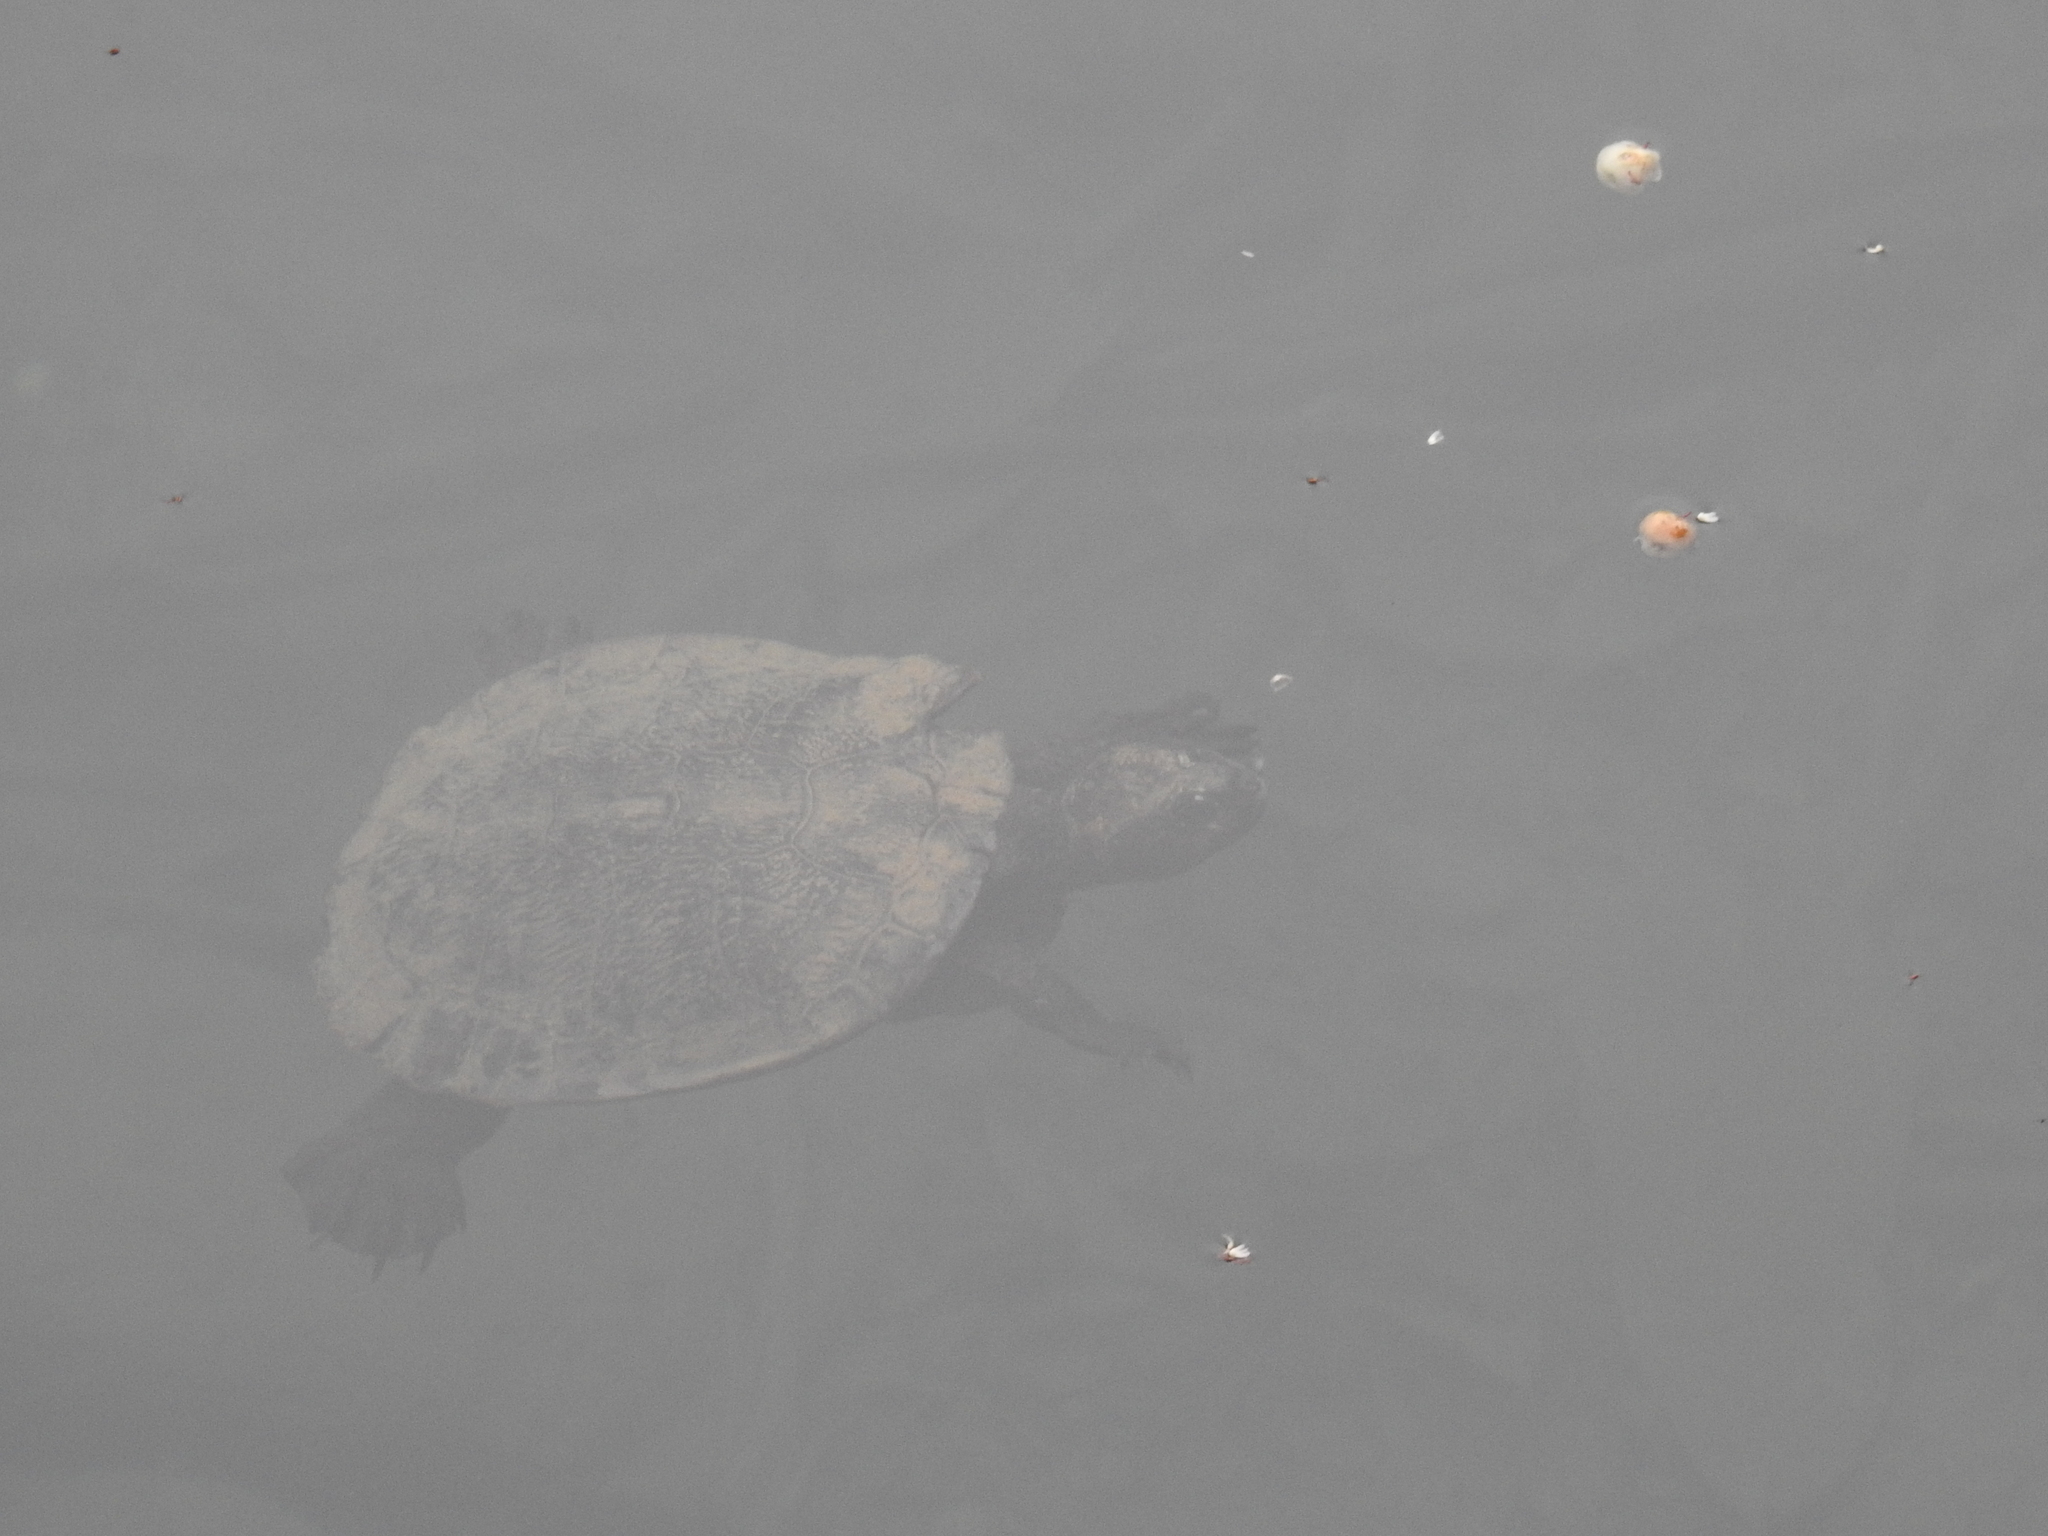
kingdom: Animalia
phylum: Chordata
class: Testudines
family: Chelidae
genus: Myuchelys
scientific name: Myuchelys latisternum
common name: Serrated snapping turtle
